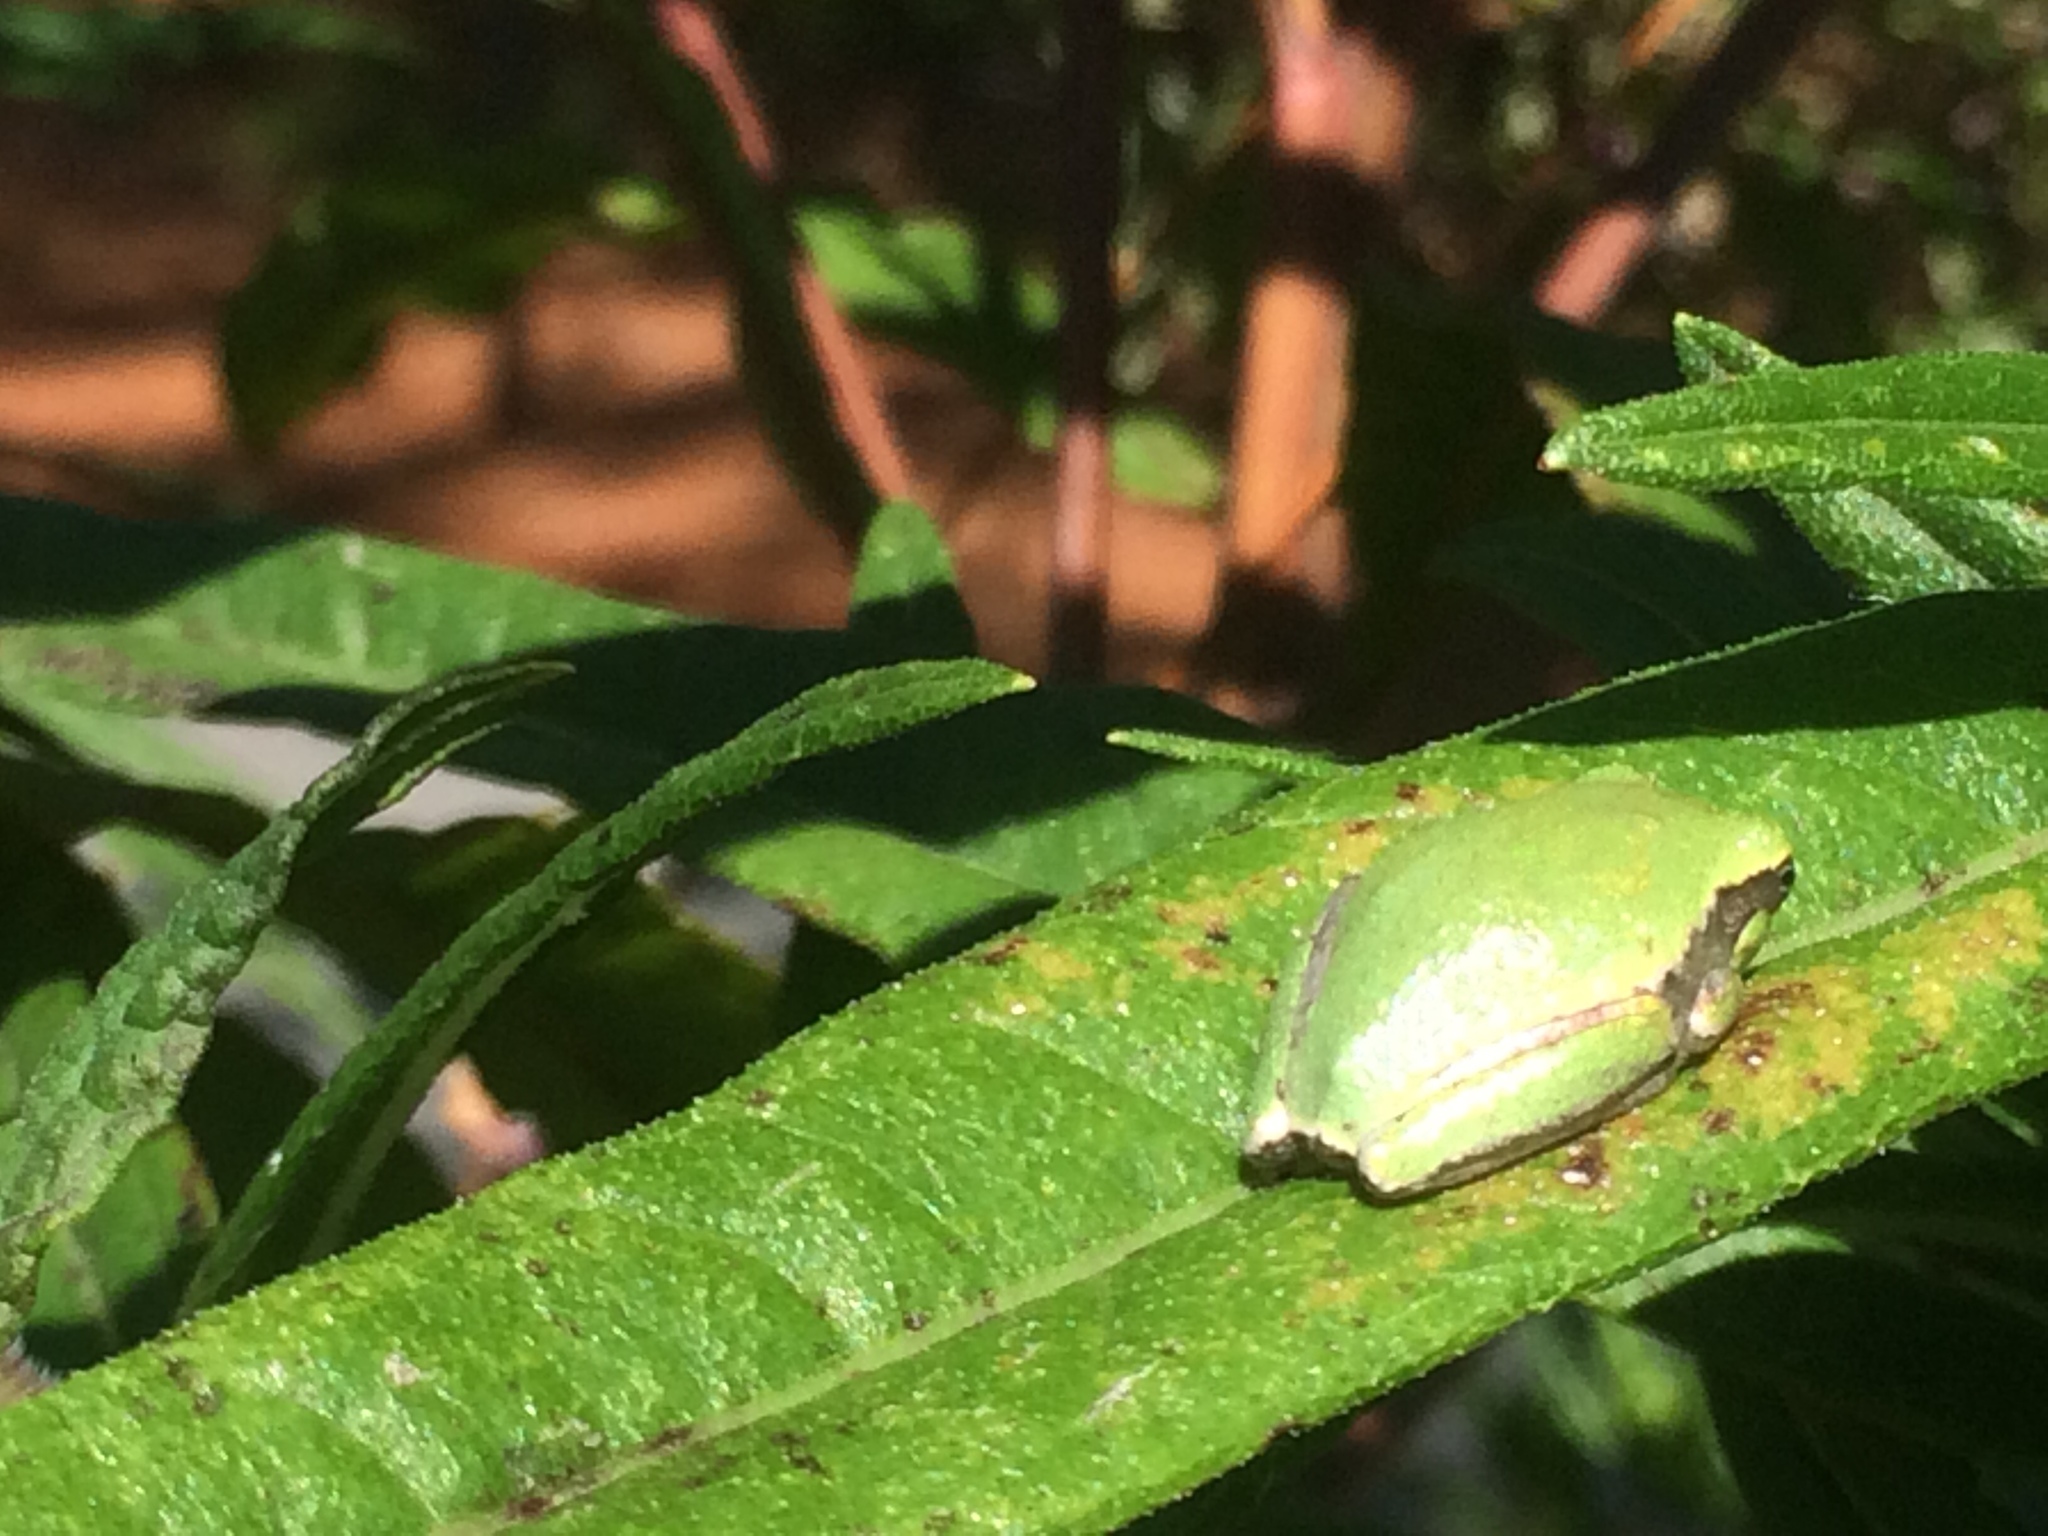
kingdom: Animalia
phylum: Chordata
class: Amphibia
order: Anura
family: Hylidae
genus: Hyla
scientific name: Hyla femoralis
